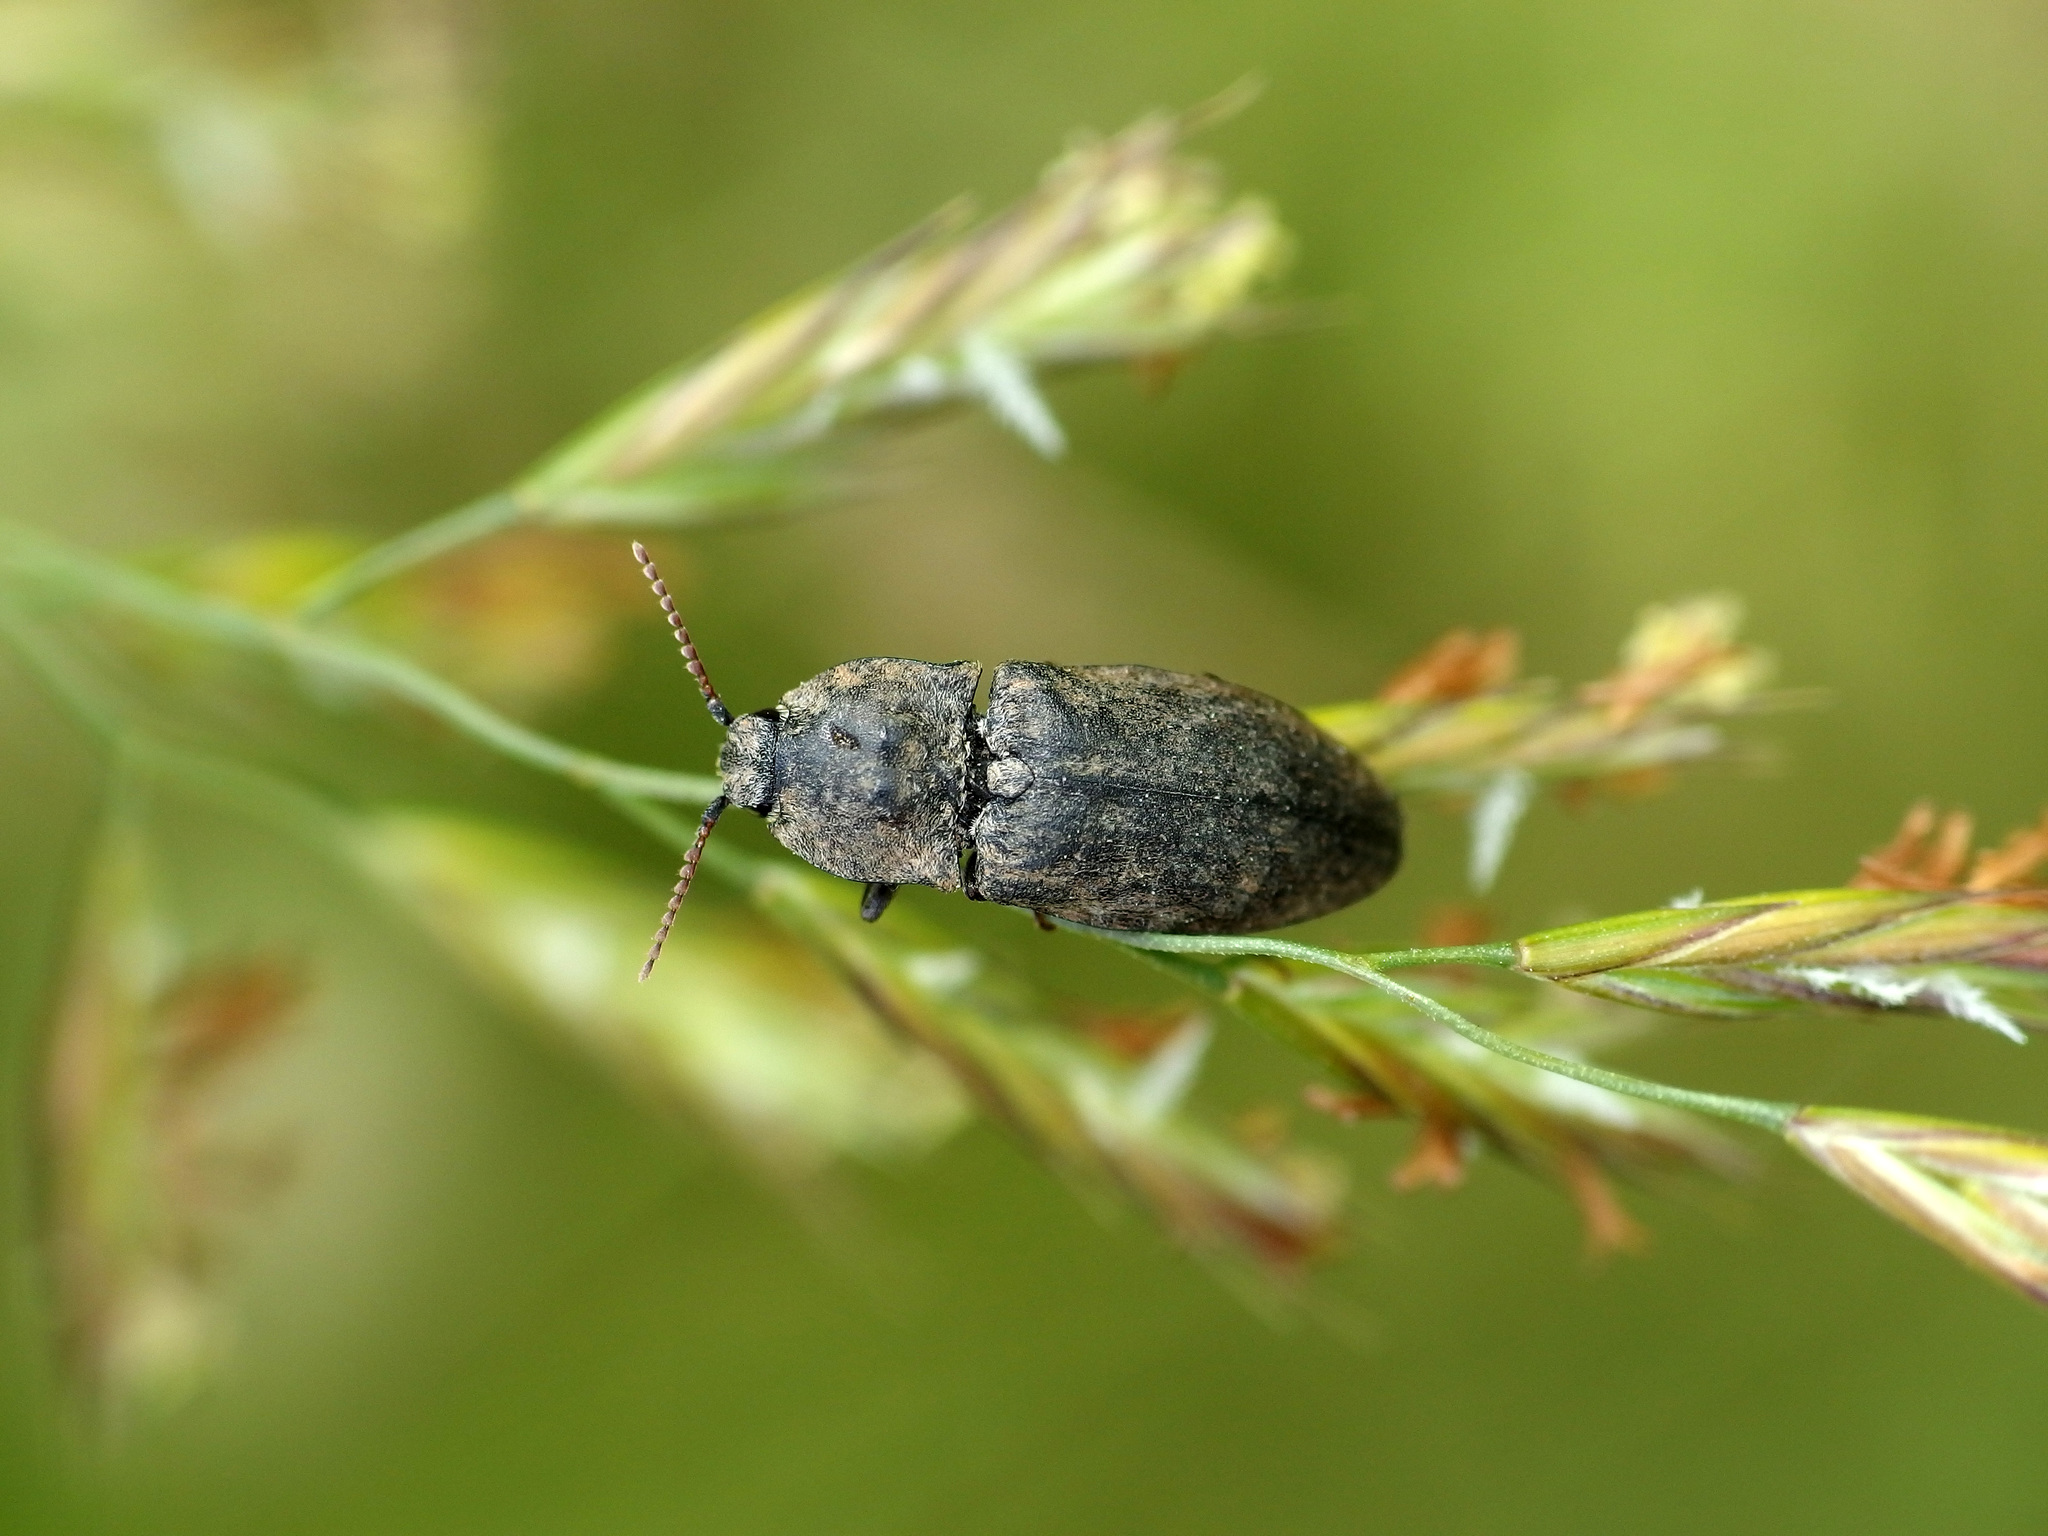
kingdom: Animalia
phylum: Arthropoda
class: Insecta
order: Coleoptera
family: Elateridae
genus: Agrypnus
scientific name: Agrypnus murinus
